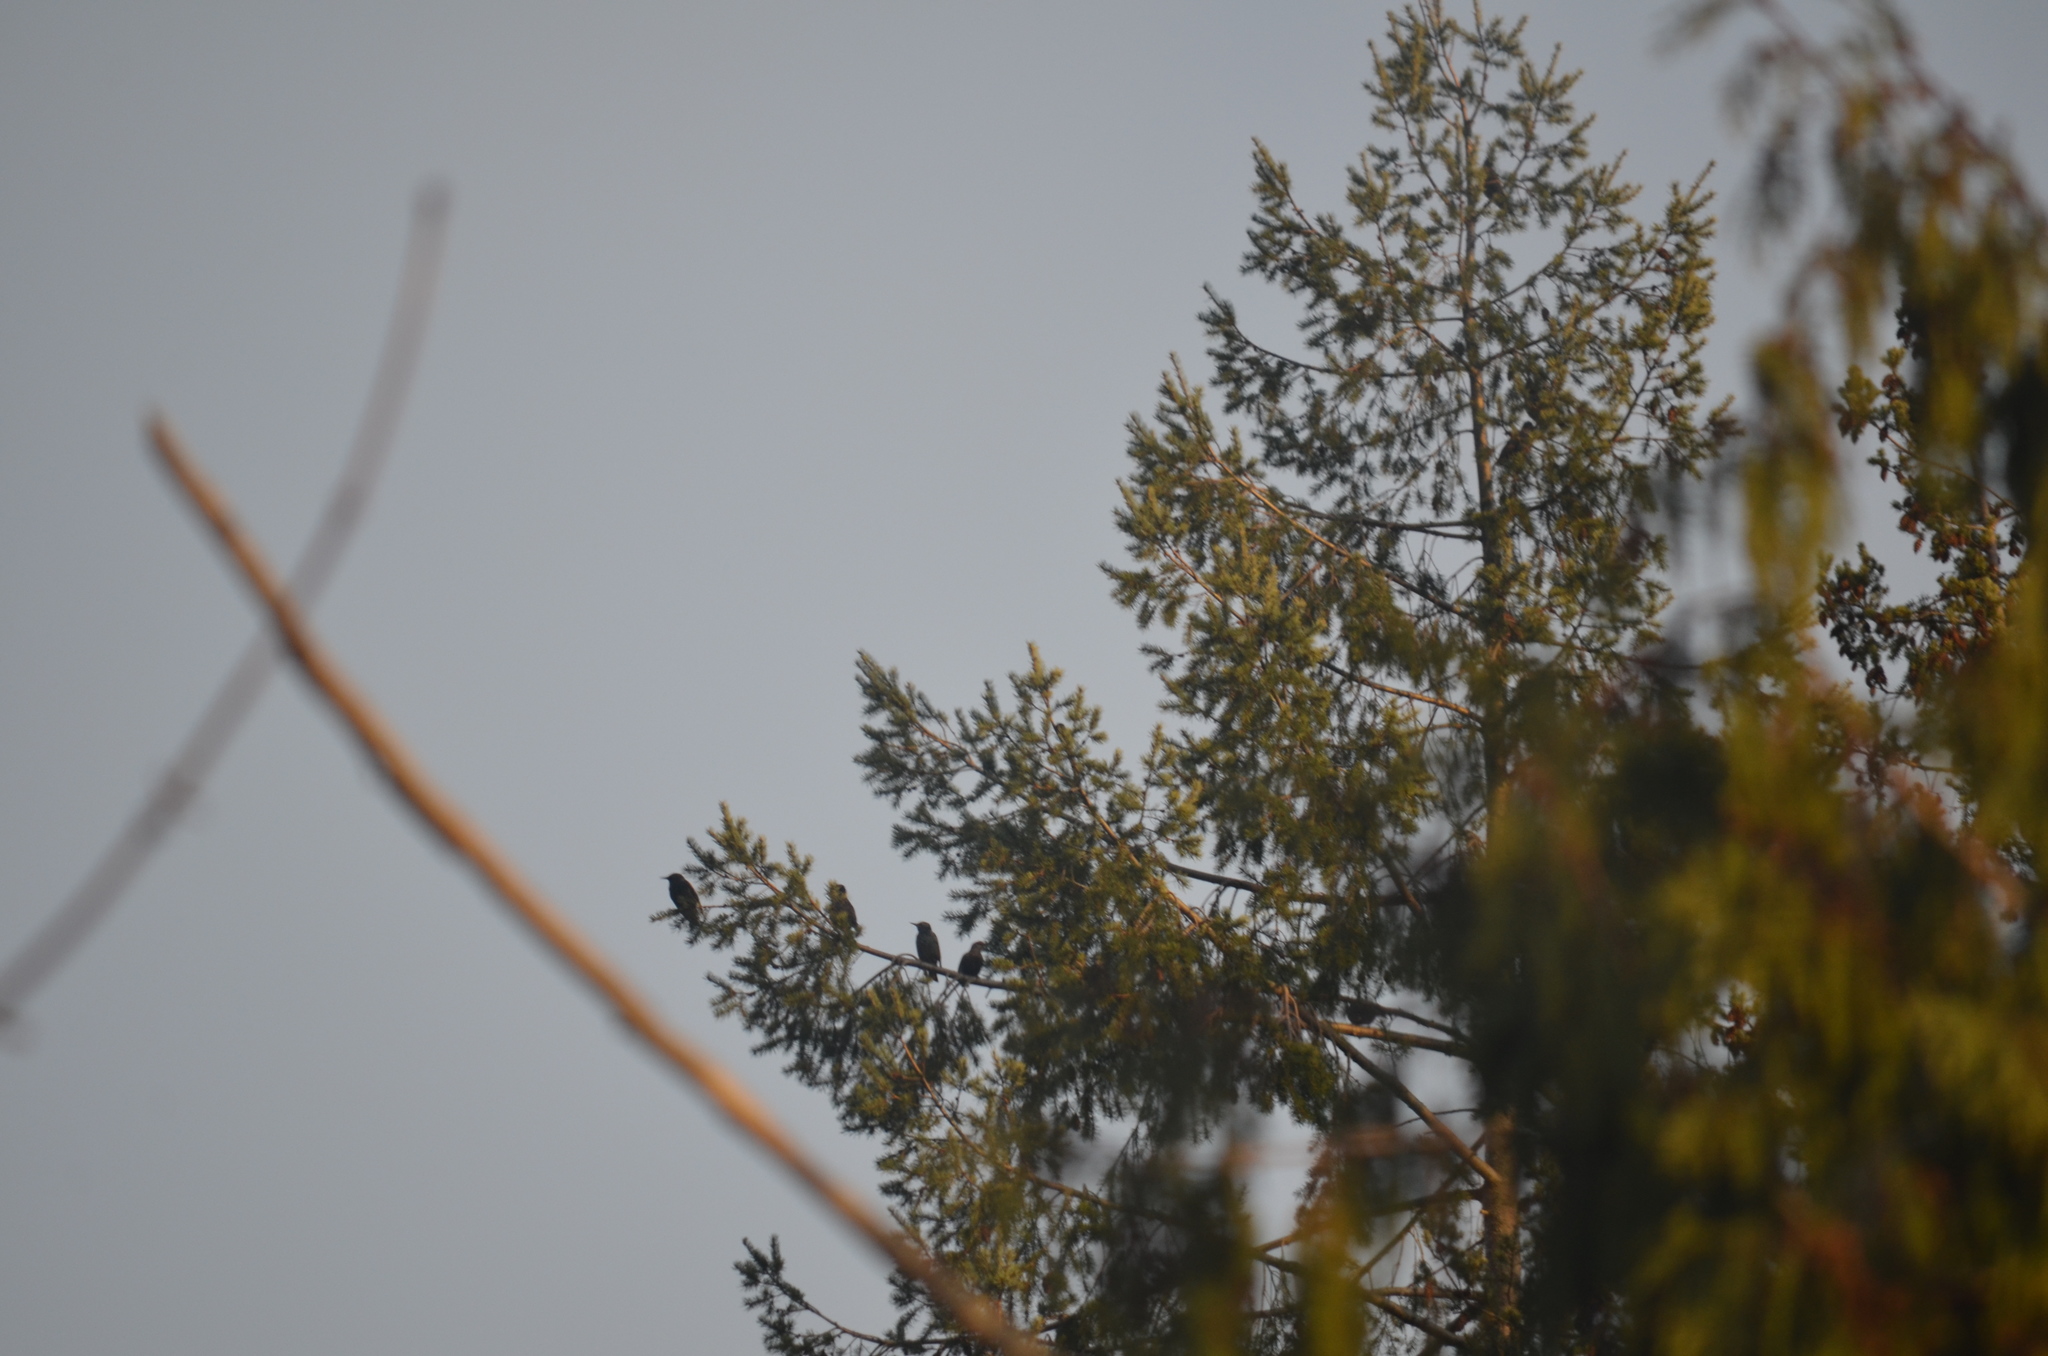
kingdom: Animalia
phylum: Chordata
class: Aves
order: Passeriformes
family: Sturnidae
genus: Sturnus
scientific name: Sturnus vulgaris
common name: Common starling
